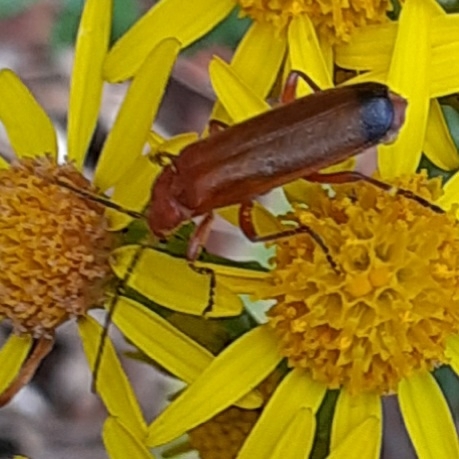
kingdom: Animalia
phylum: Arthropoda
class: Insecta
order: Coleoptera
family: Cantharidae
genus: Rhagonycha
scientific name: Rhagonycha fulva
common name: Common red soldier beetle
